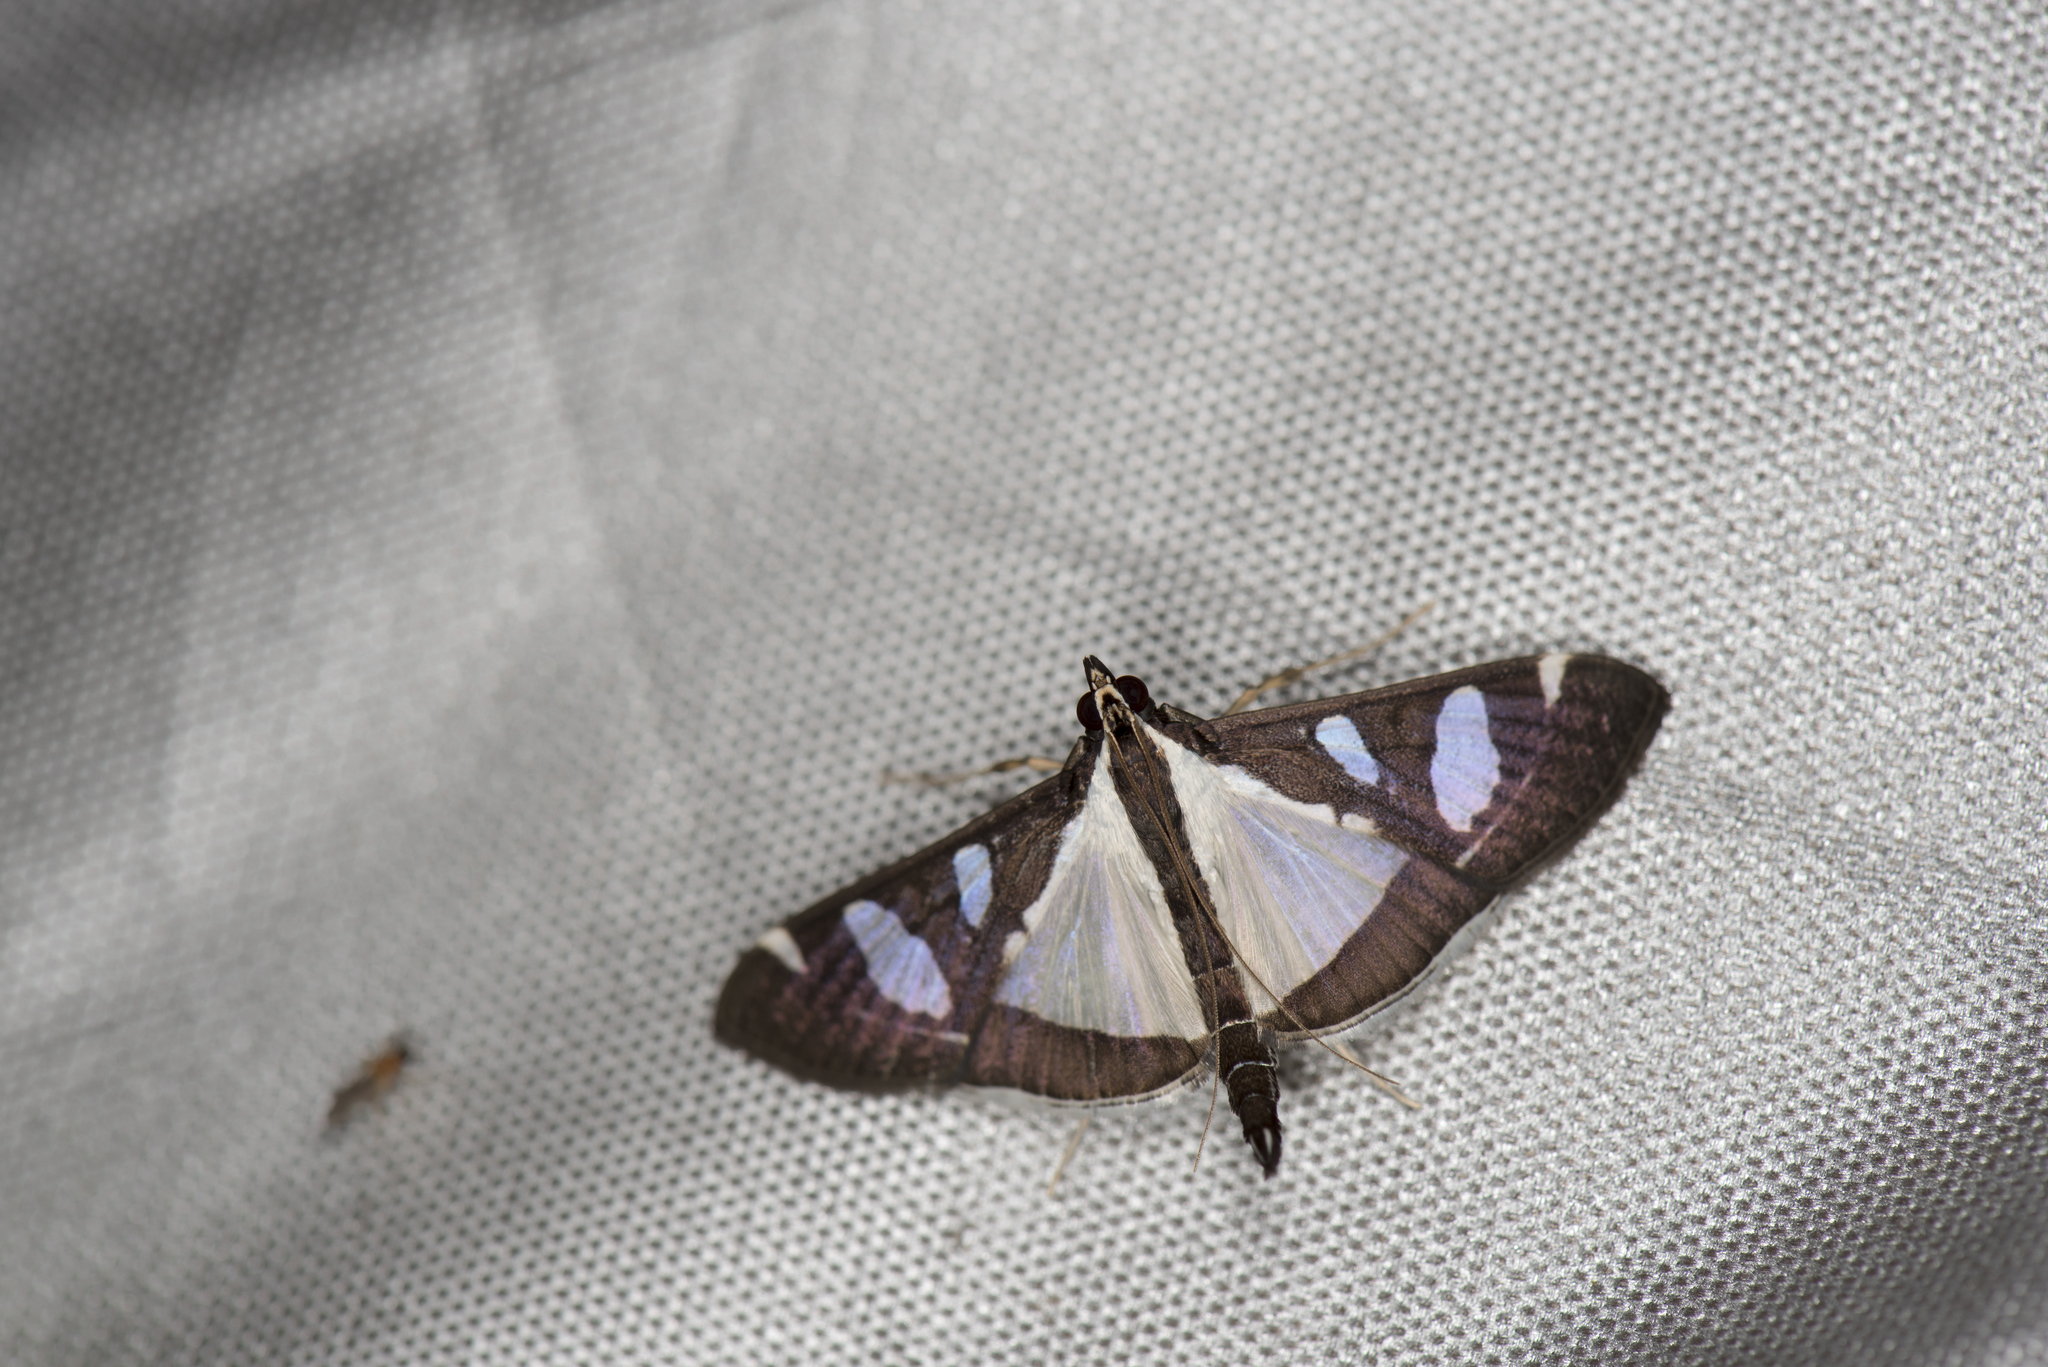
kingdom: Animalia
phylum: Arthropoda
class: Insecta
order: Lepidoptera
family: Crambidae
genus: Glyphodes
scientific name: Glyphodes actorionalis
